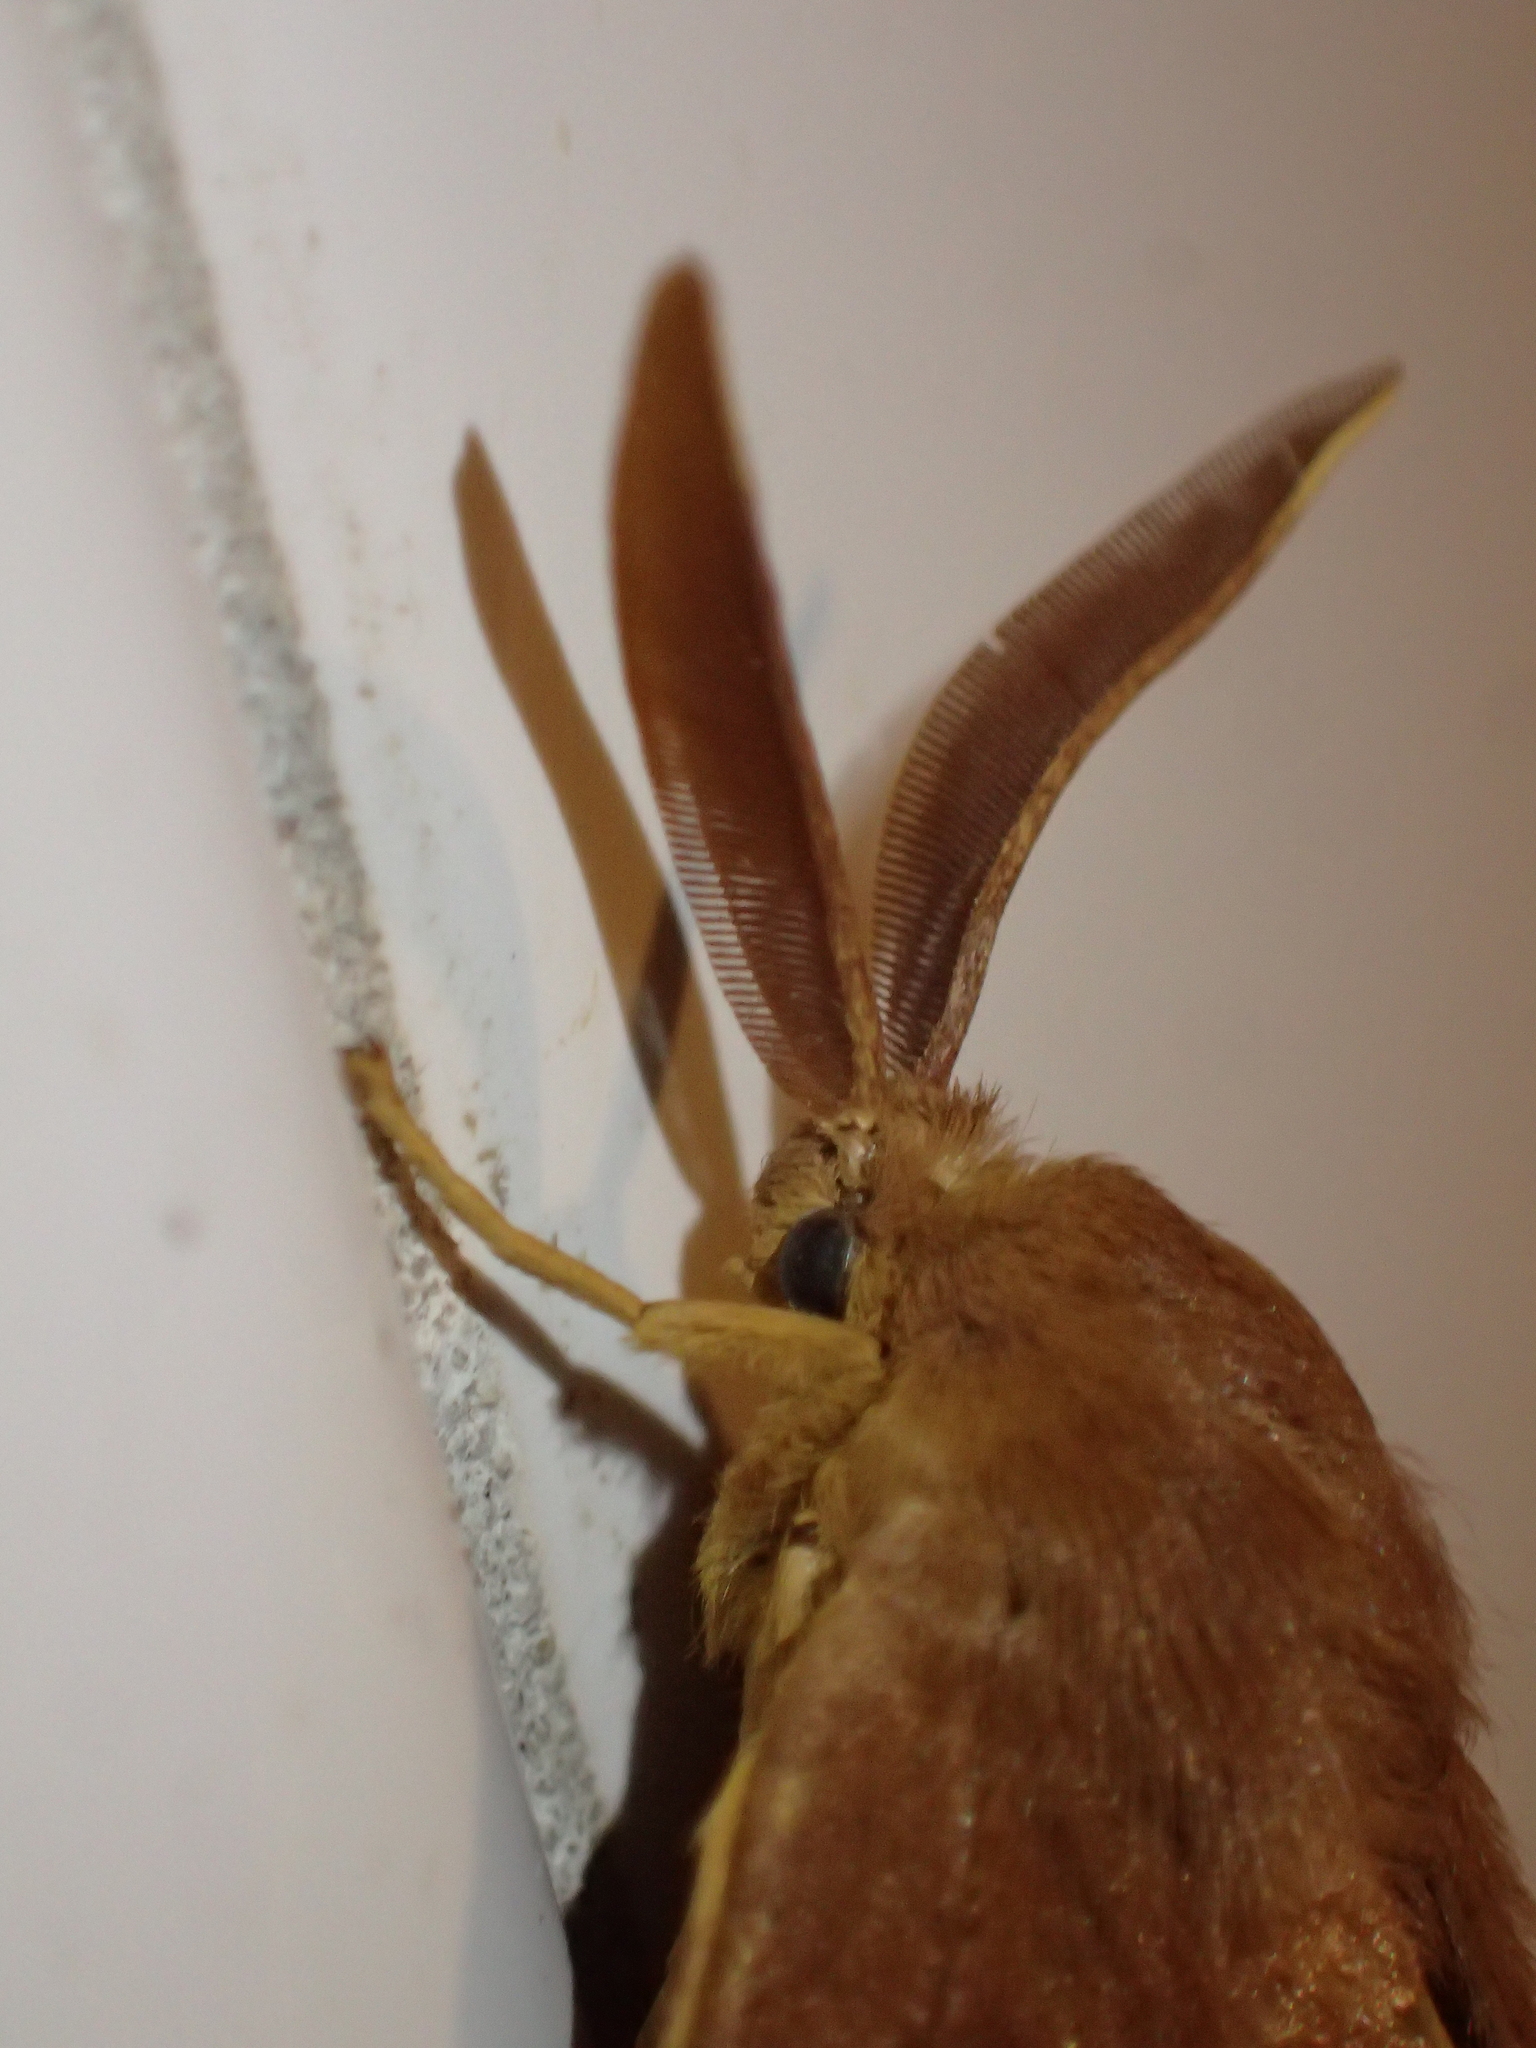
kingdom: Animalia
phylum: Arthropoda
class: Insecta
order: Lepidoptera
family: Lasiocampidae
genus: Lasiocampa
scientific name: Lasiocampa quercus
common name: Oak eggar
